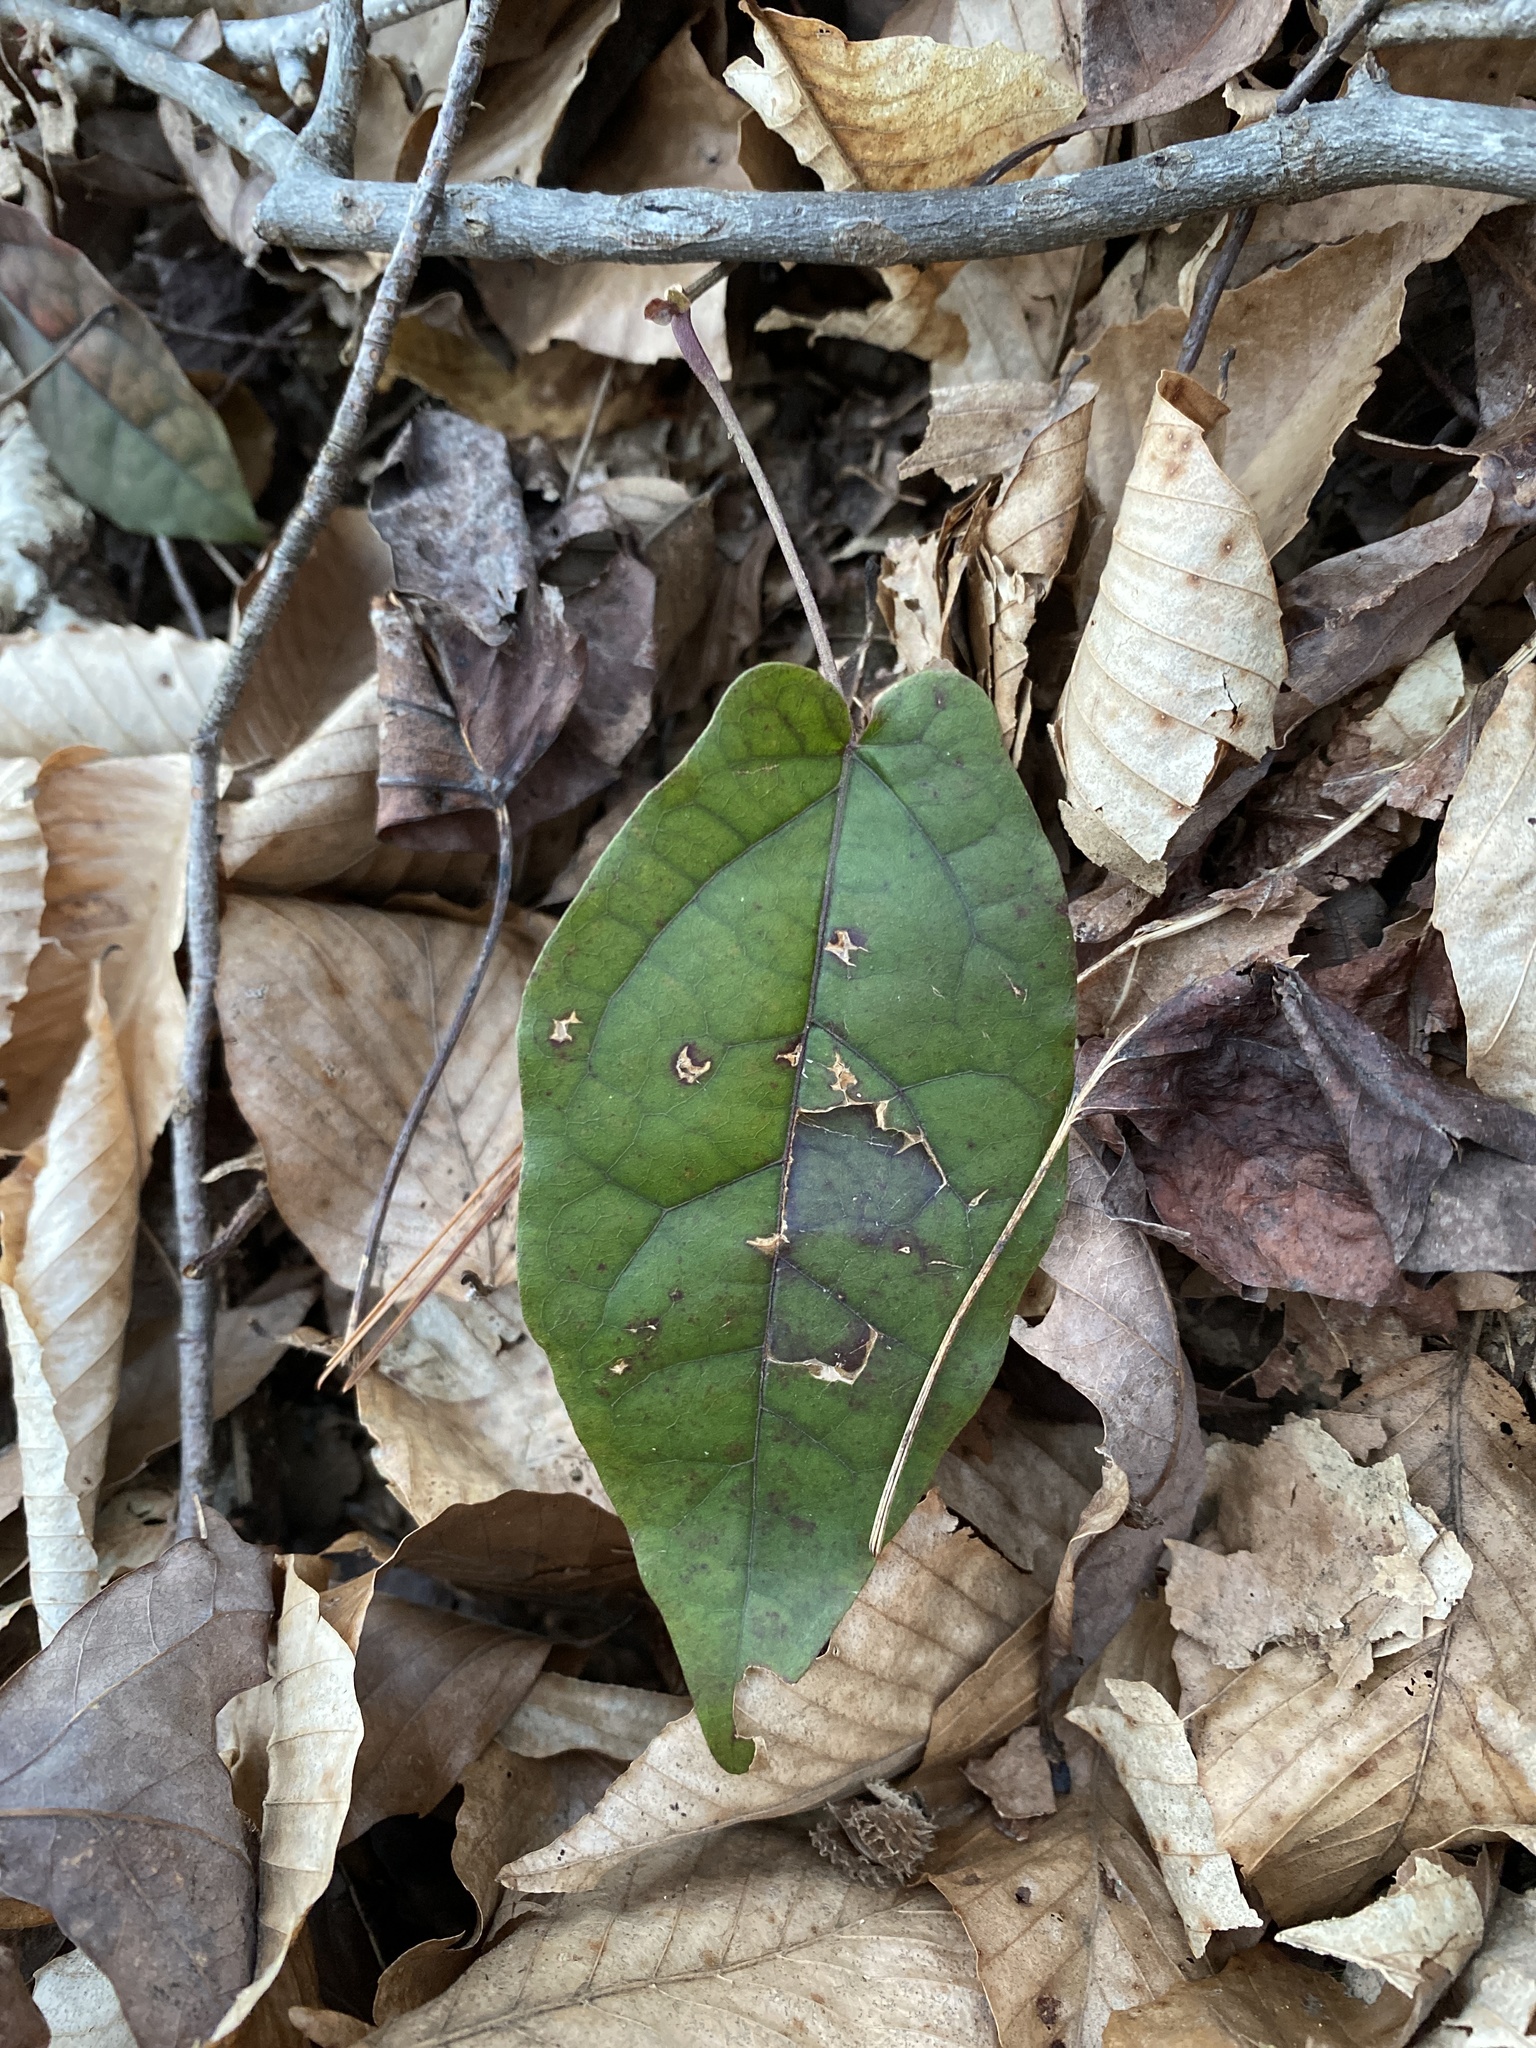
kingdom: Plantae
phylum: Tracheophyta
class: Magnoliopsida
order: Lamiales
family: Bignoniaceae
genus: Bignonia
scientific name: Bignonia capreolata
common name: Crossvine
